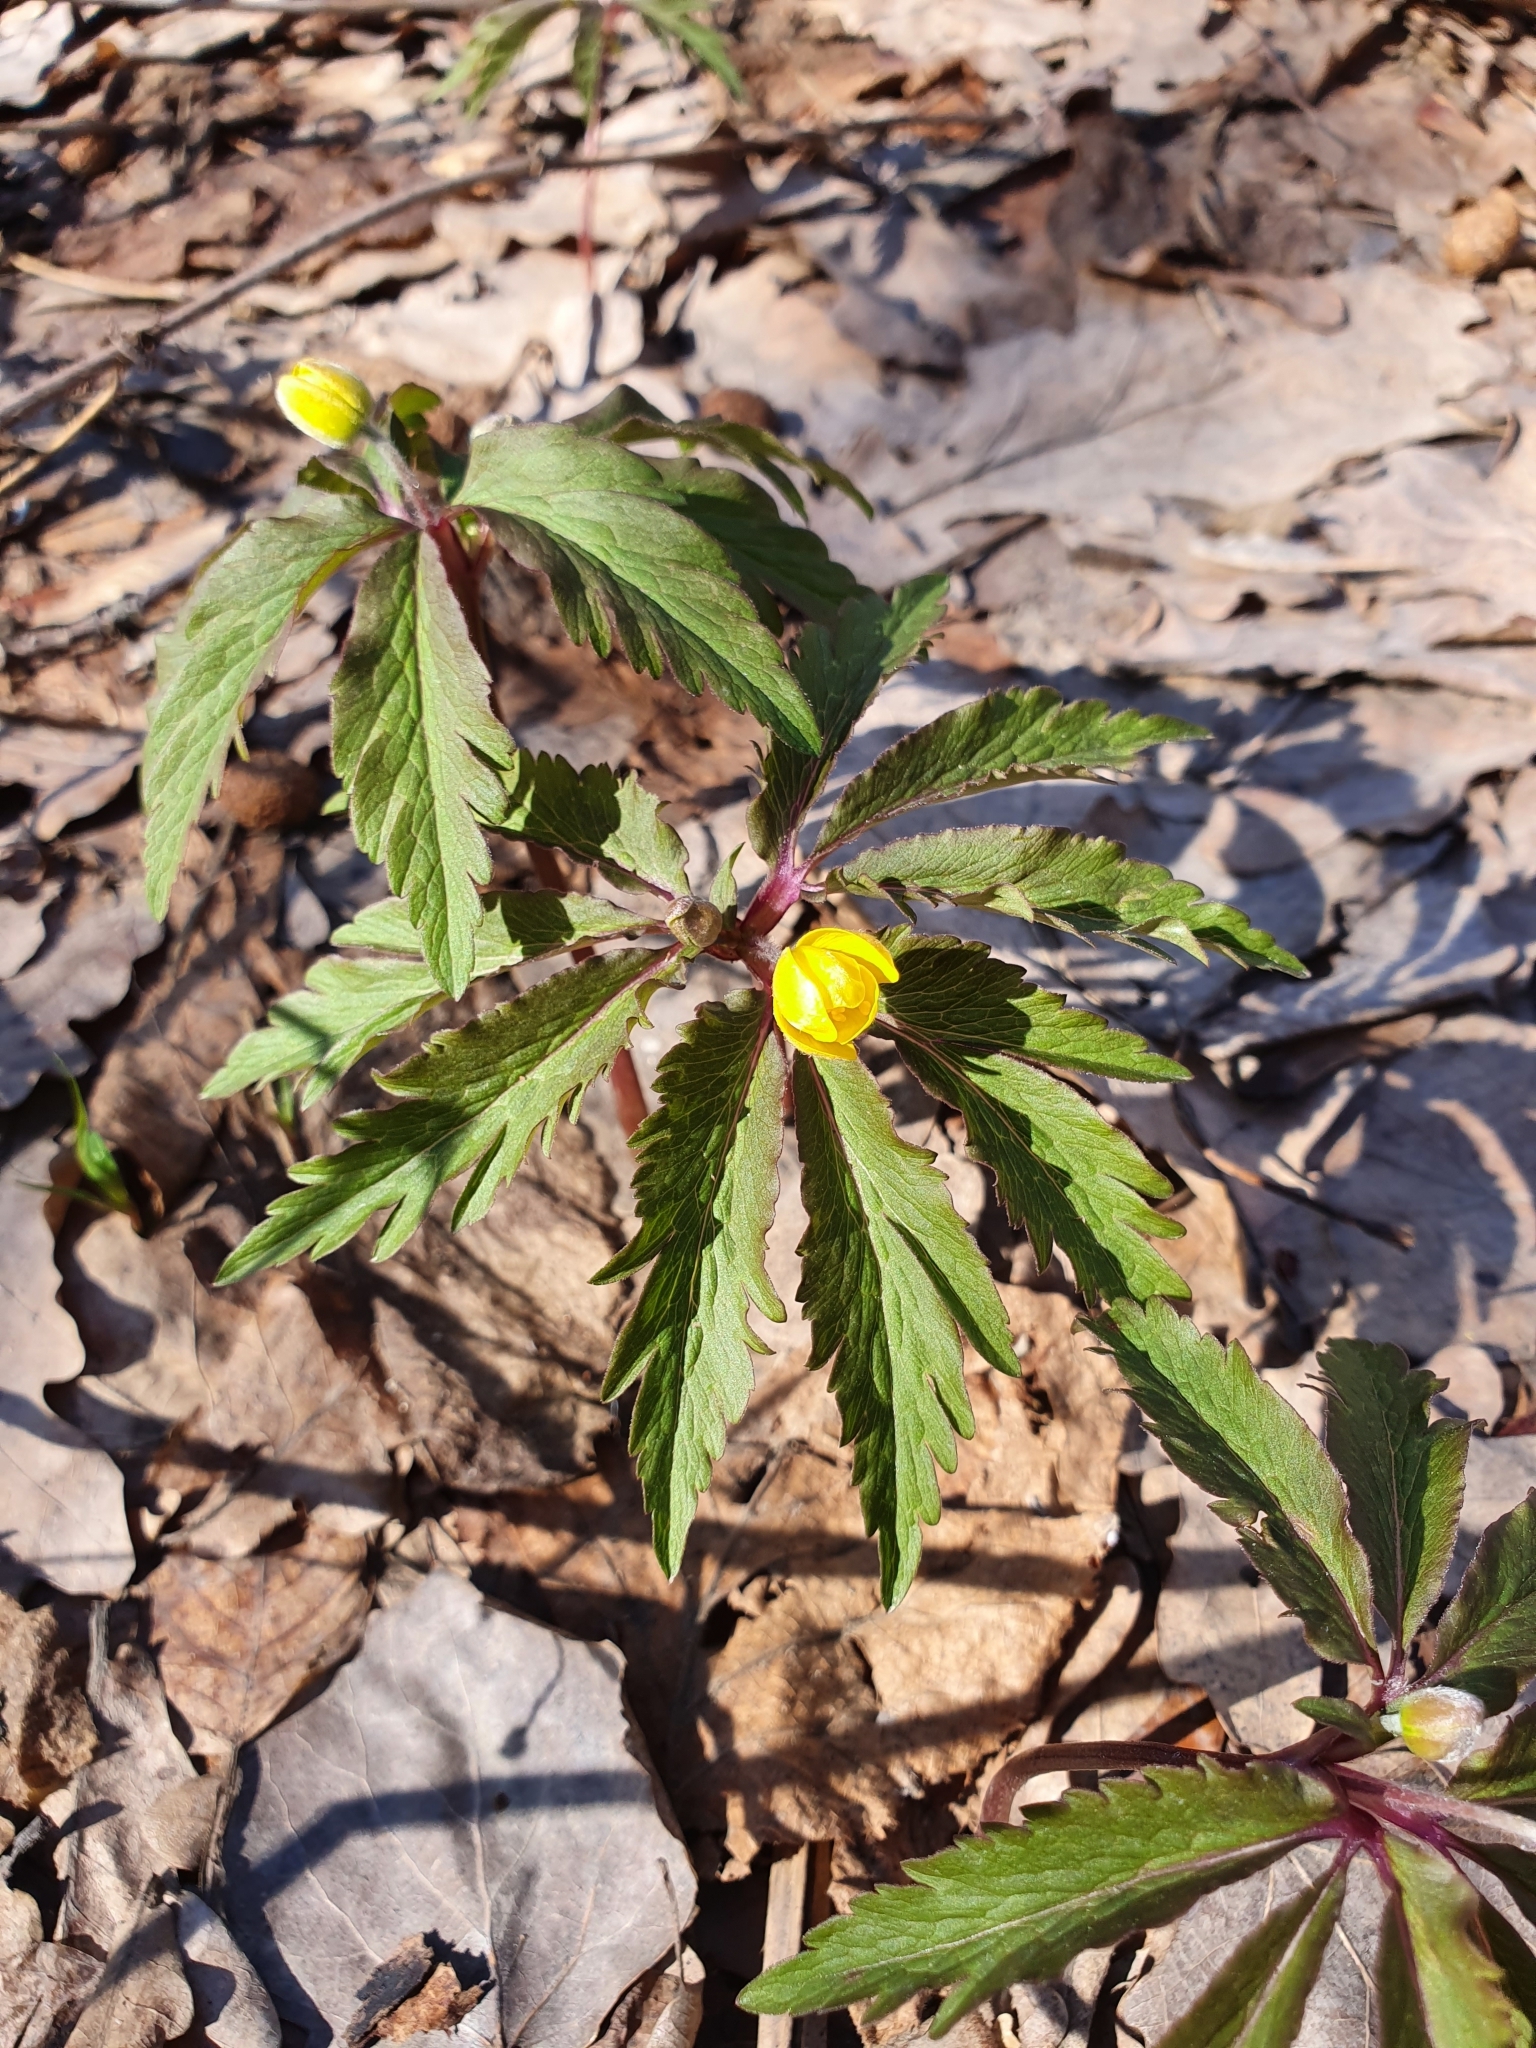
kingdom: Plantae
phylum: Tracheophyta
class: Magnoliopsida
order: Ranunculales
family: Ranunculaceae
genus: Anemone
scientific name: Anemone ranunculoides
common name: Yellow anemone
